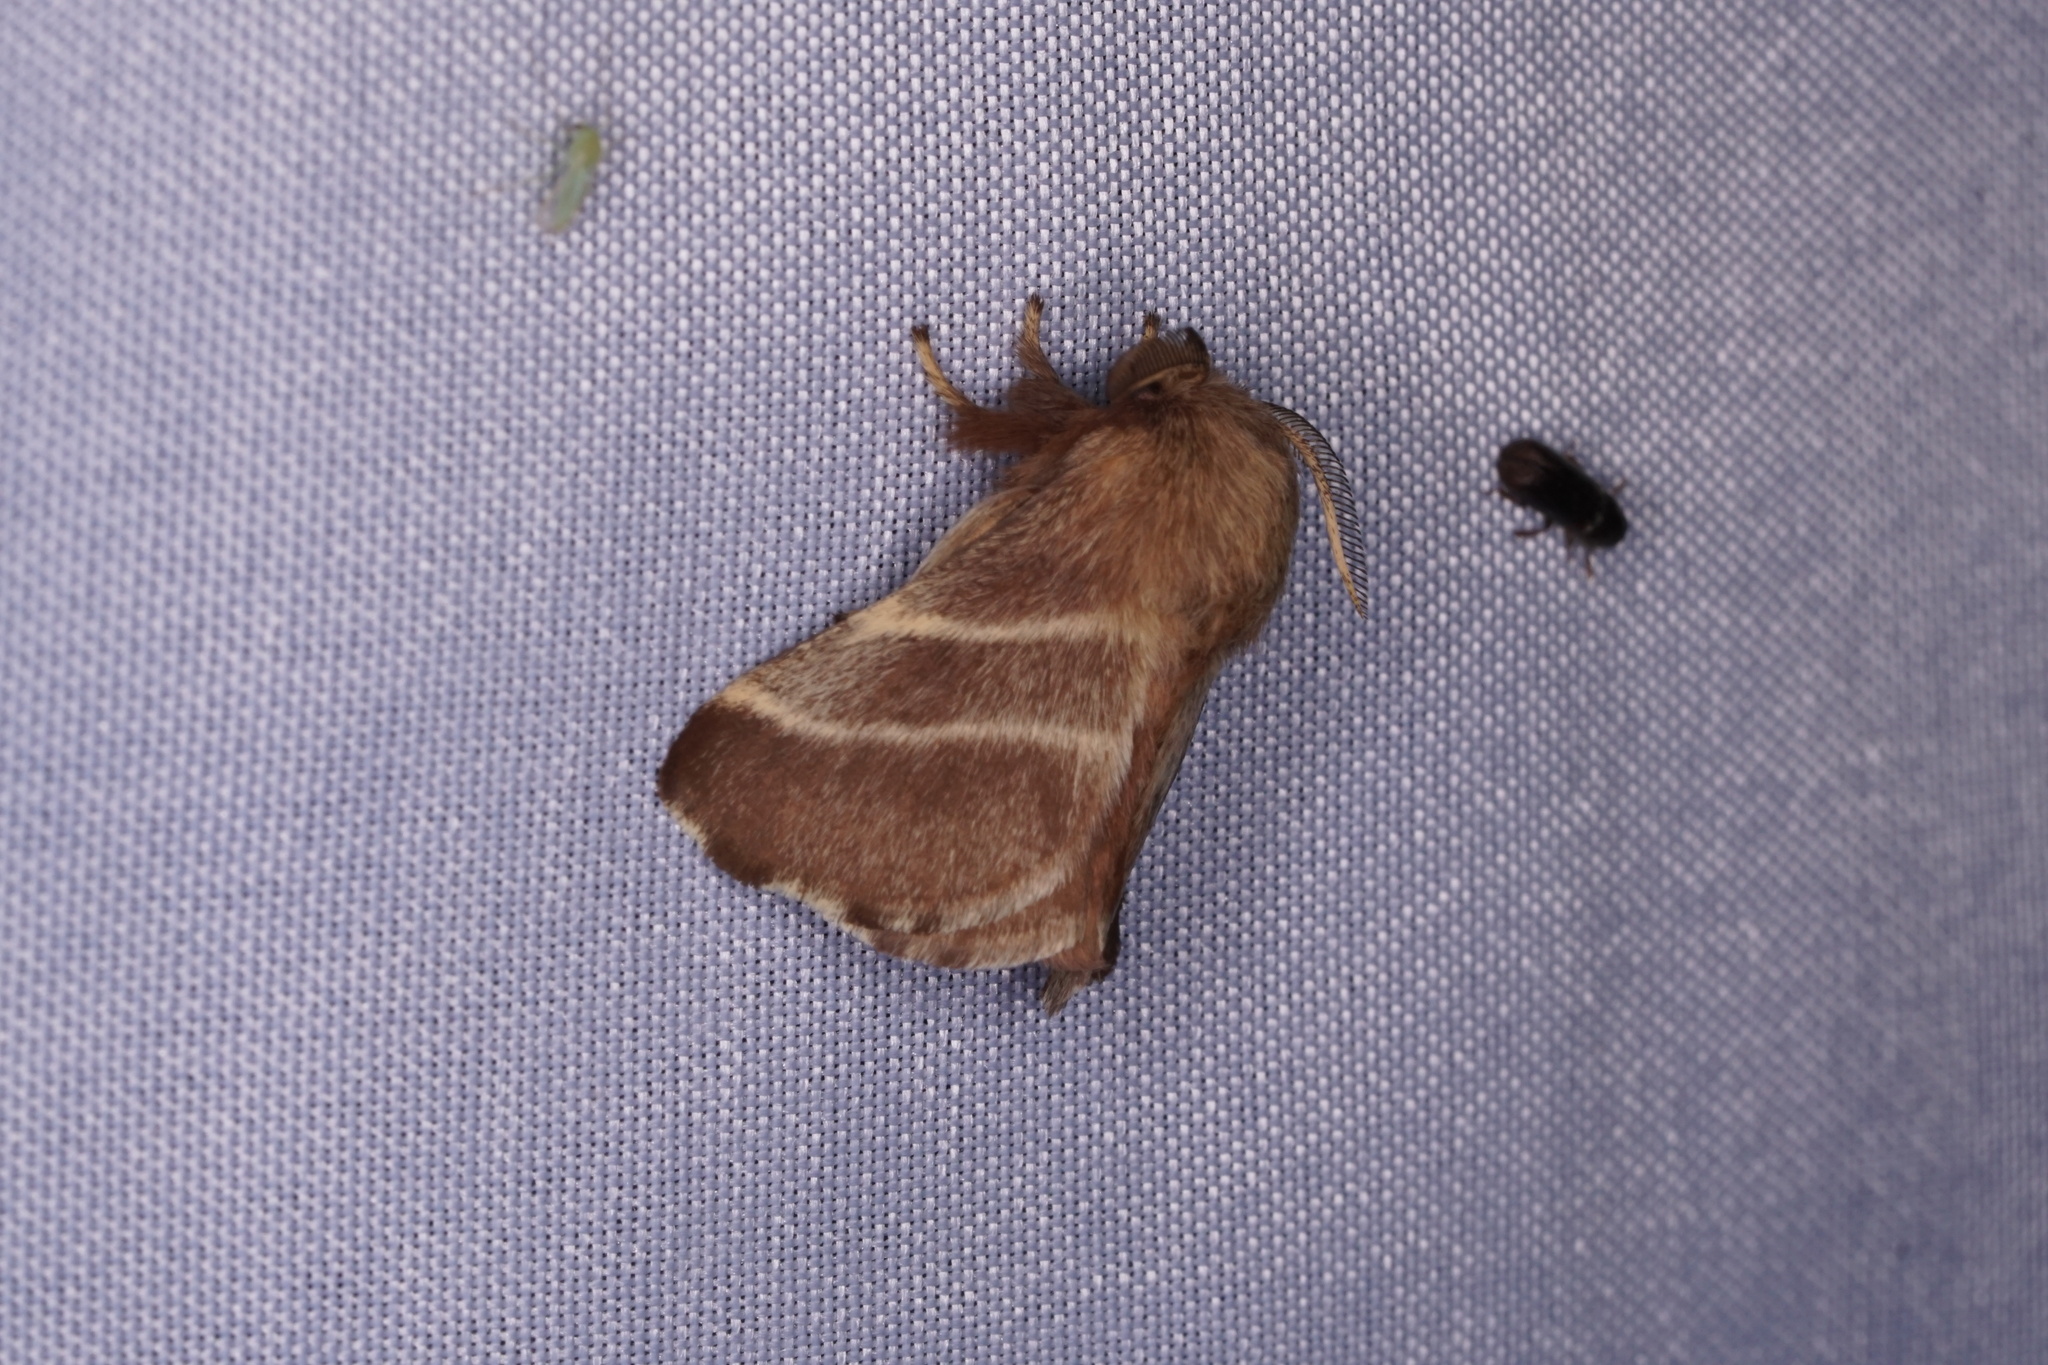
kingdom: Animalia
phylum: Arthropoda
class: Insecta
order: Lepidoptera
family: Lasiocampidae
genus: Malacosoma
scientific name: Malacosoma americana
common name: Eastern tent caterpillar moth
